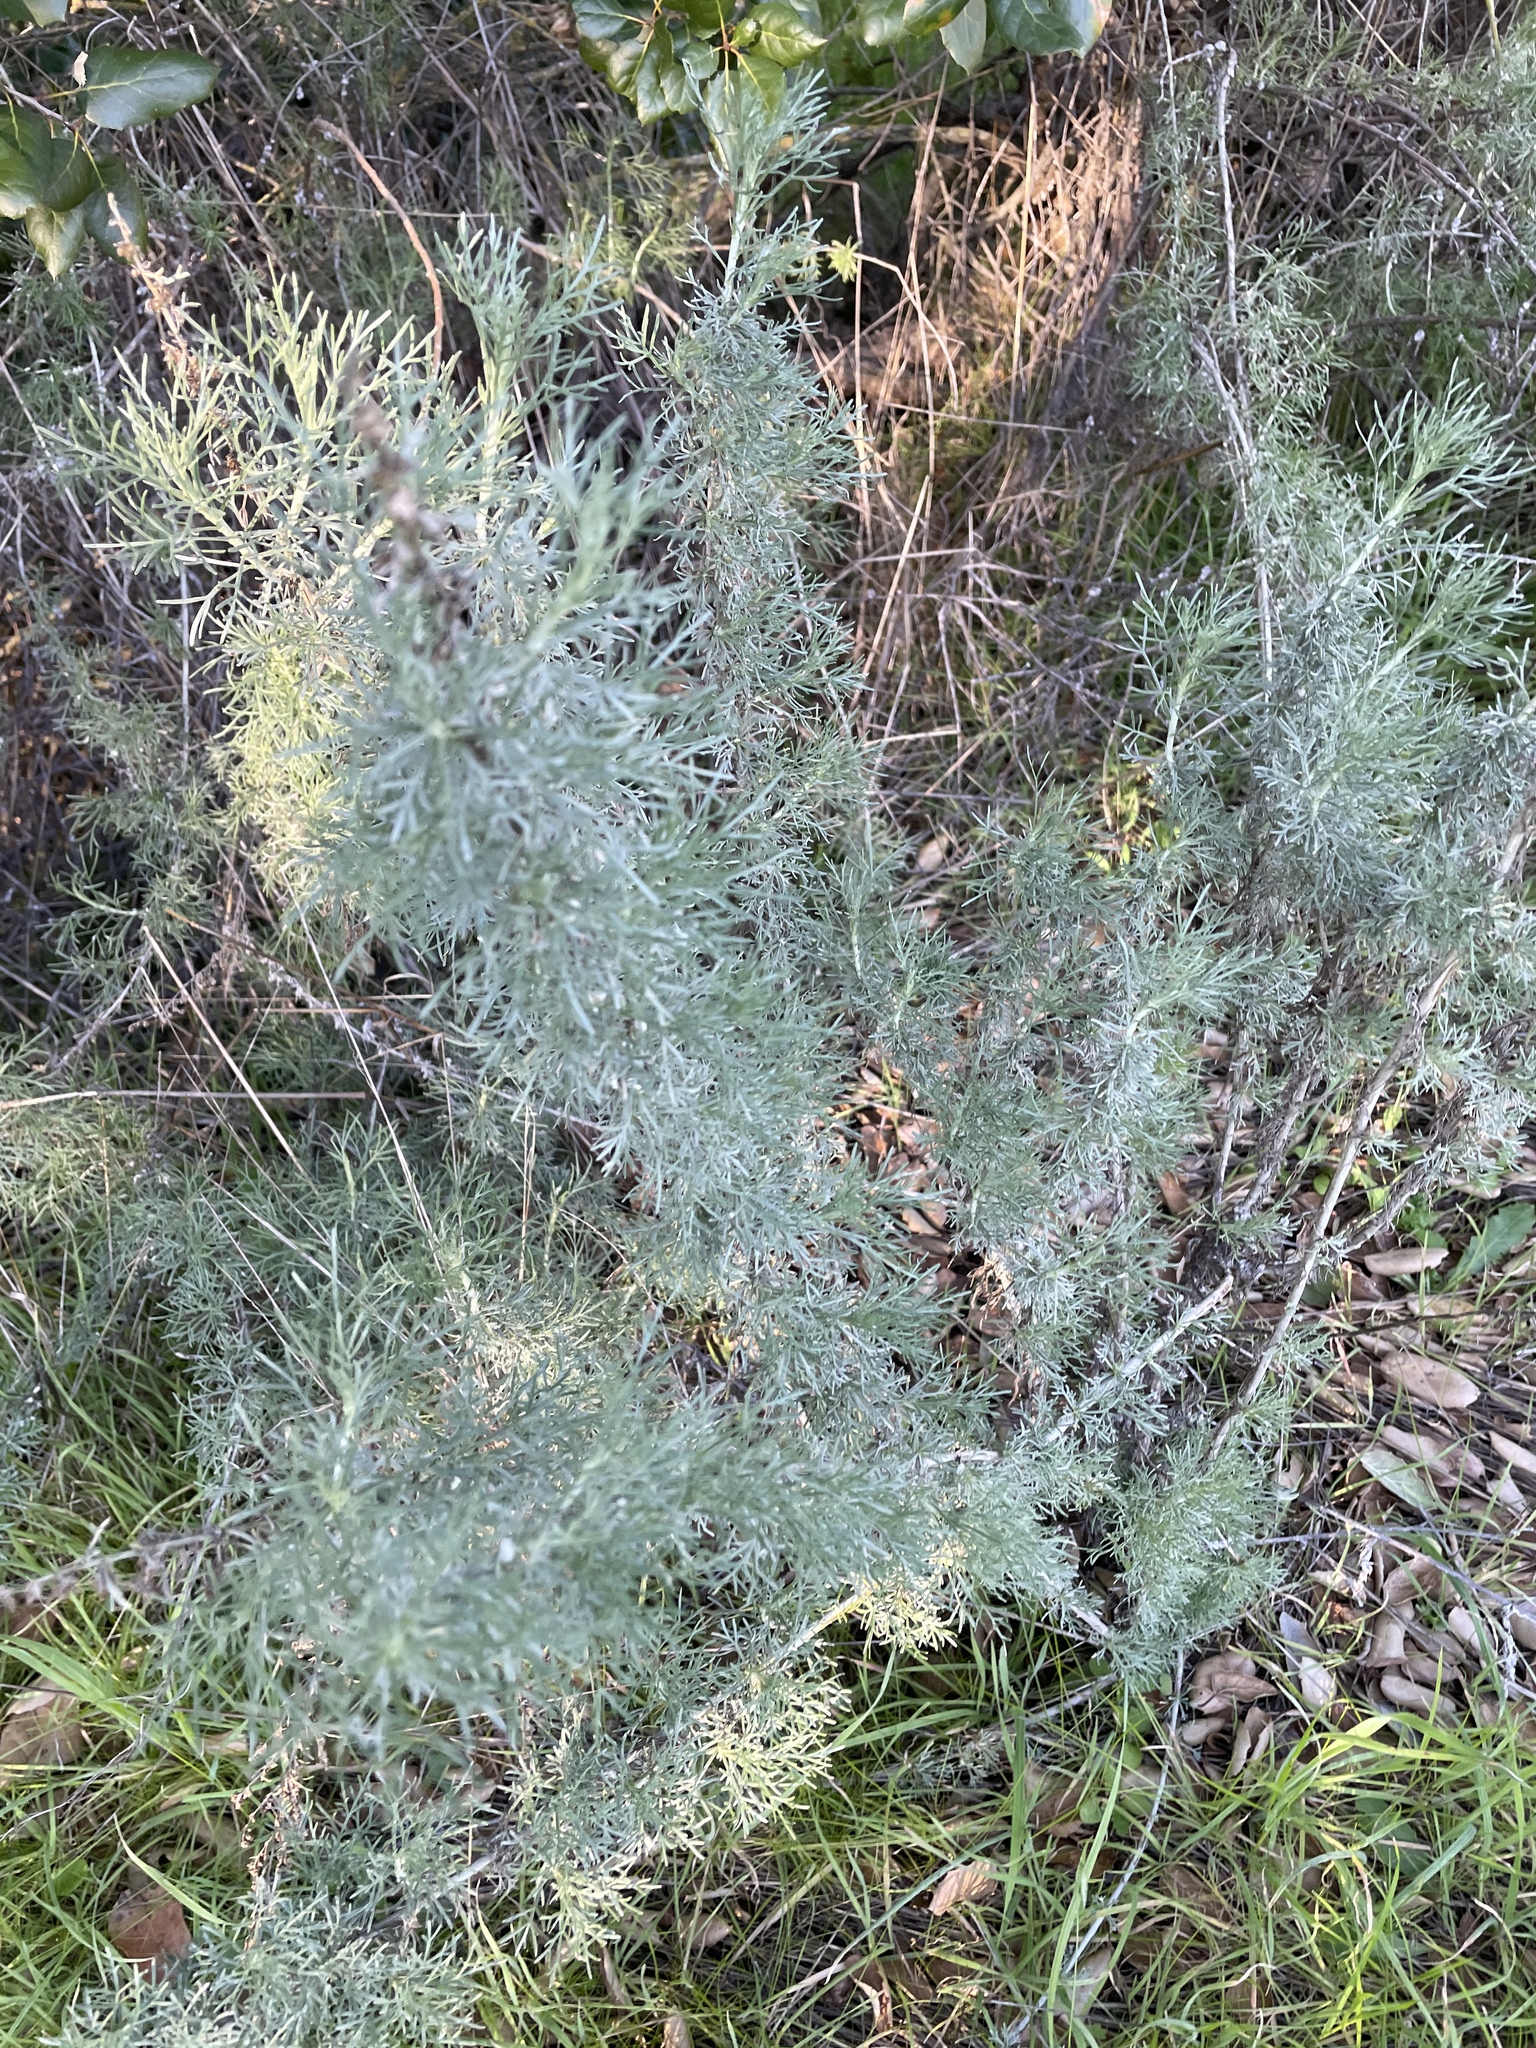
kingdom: Plantae
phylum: Tracheophyta
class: Magnoliopsida
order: Asterales
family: Asteraceae
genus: Artemisia
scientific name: Artemisia californica
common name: California sagebrush
